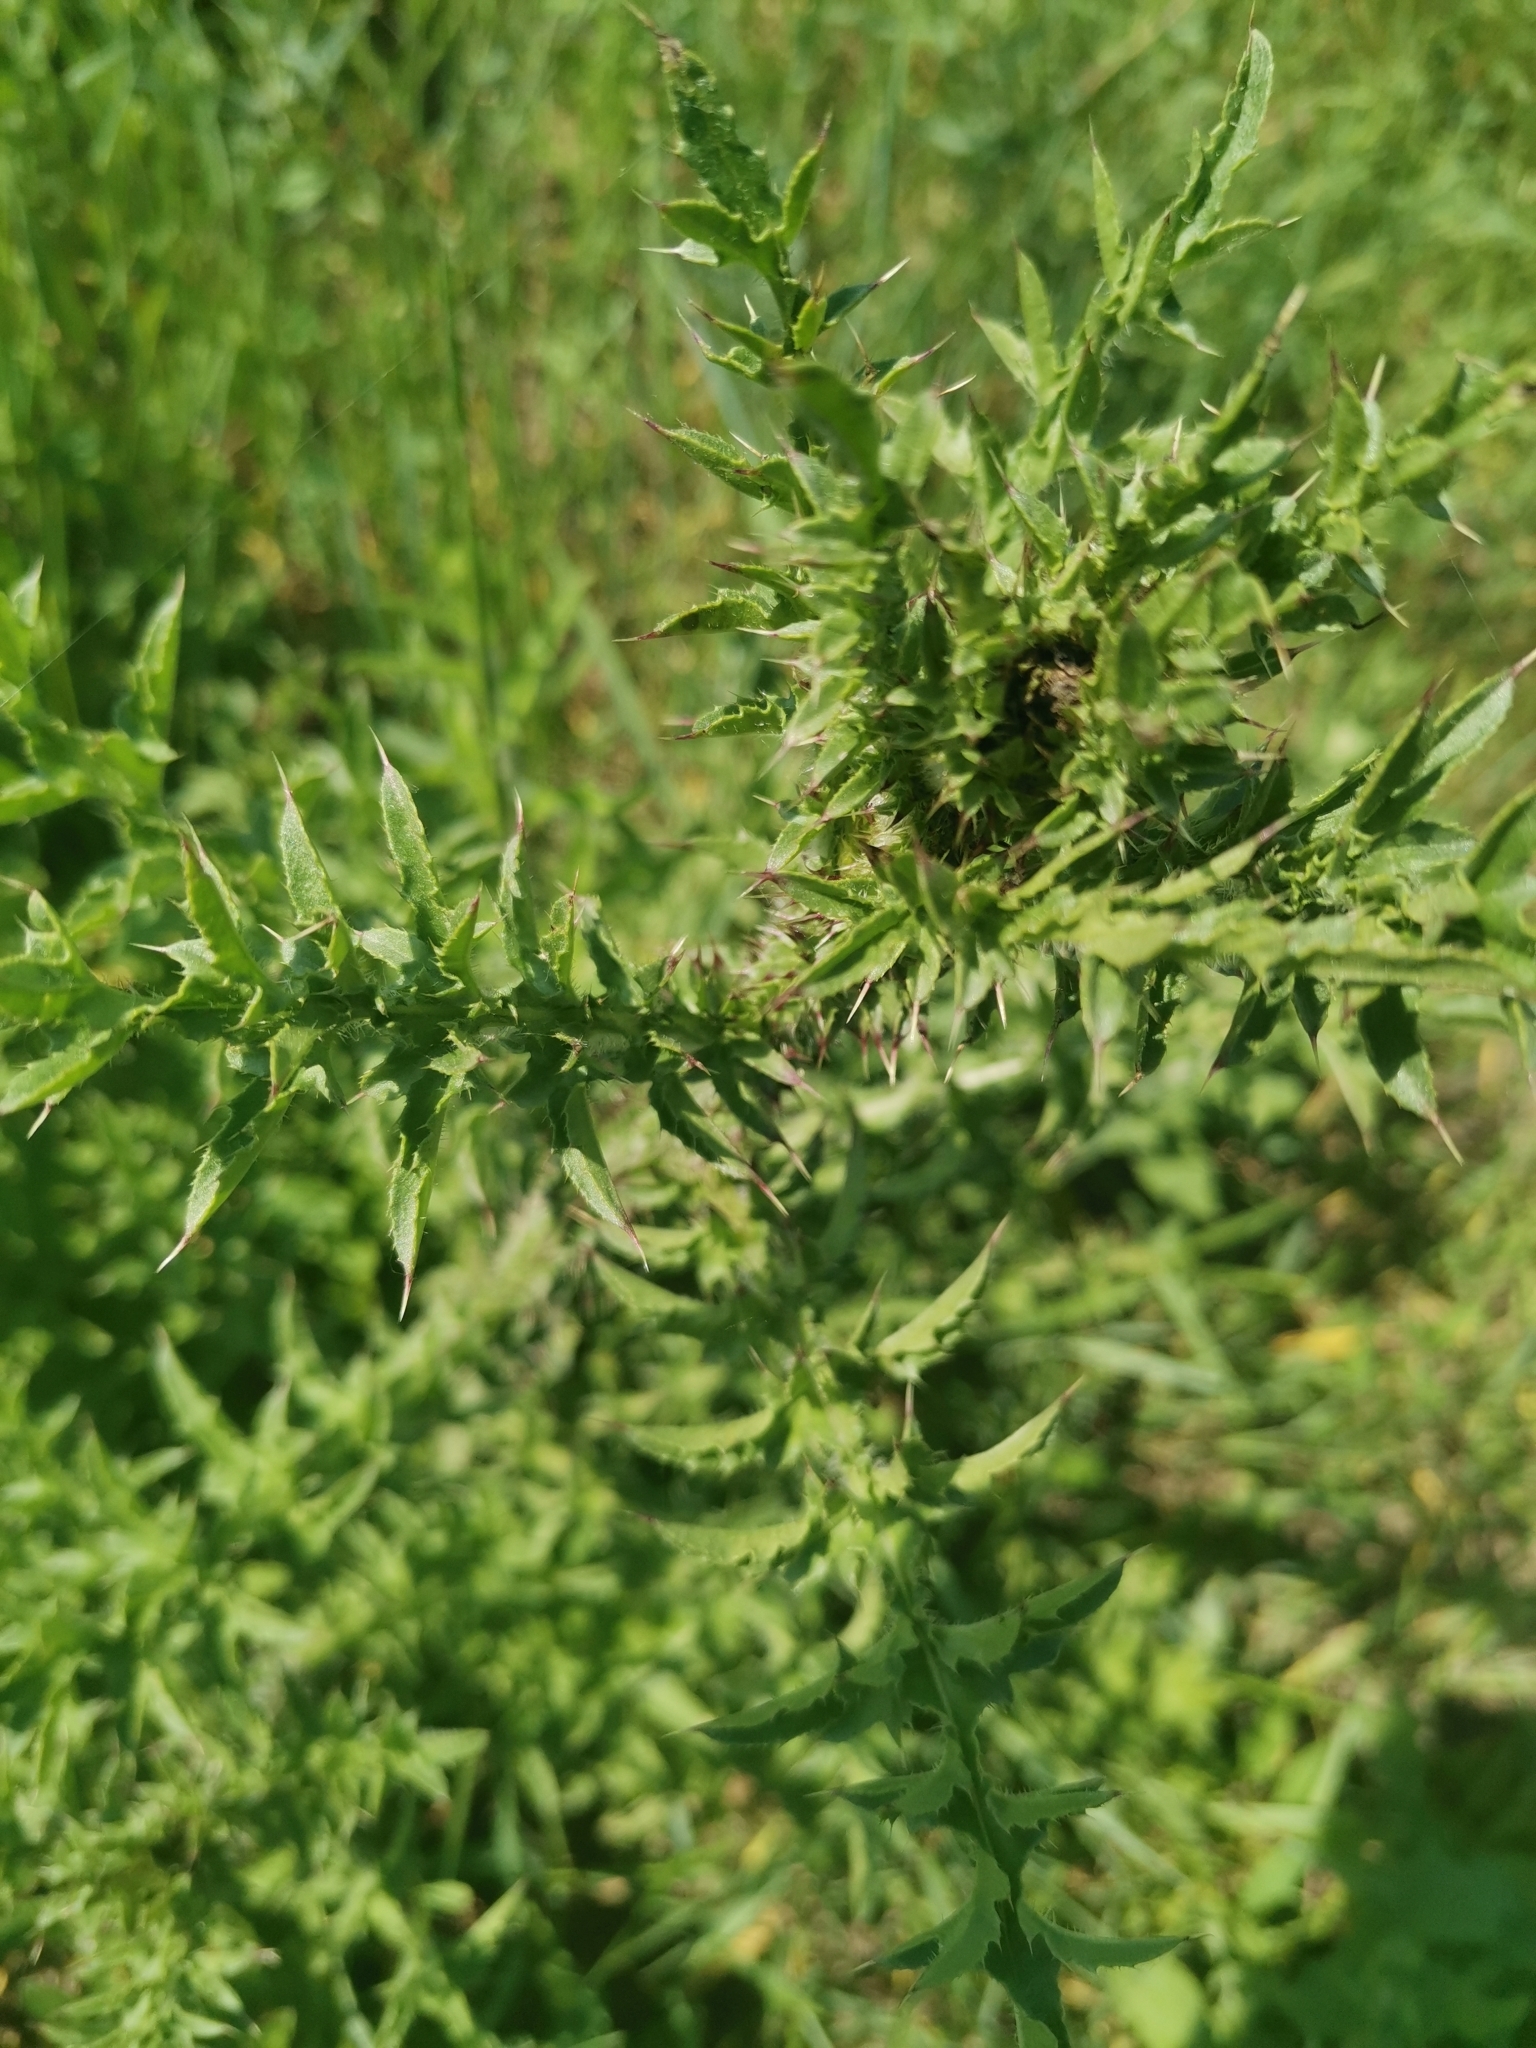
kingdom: Plantae
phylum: Tracheophyta
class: Magnoliopsida
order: Asterales
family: Asteraceae
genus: Carduus
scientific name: Carduus acanthoides
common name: Plumeless thistle
